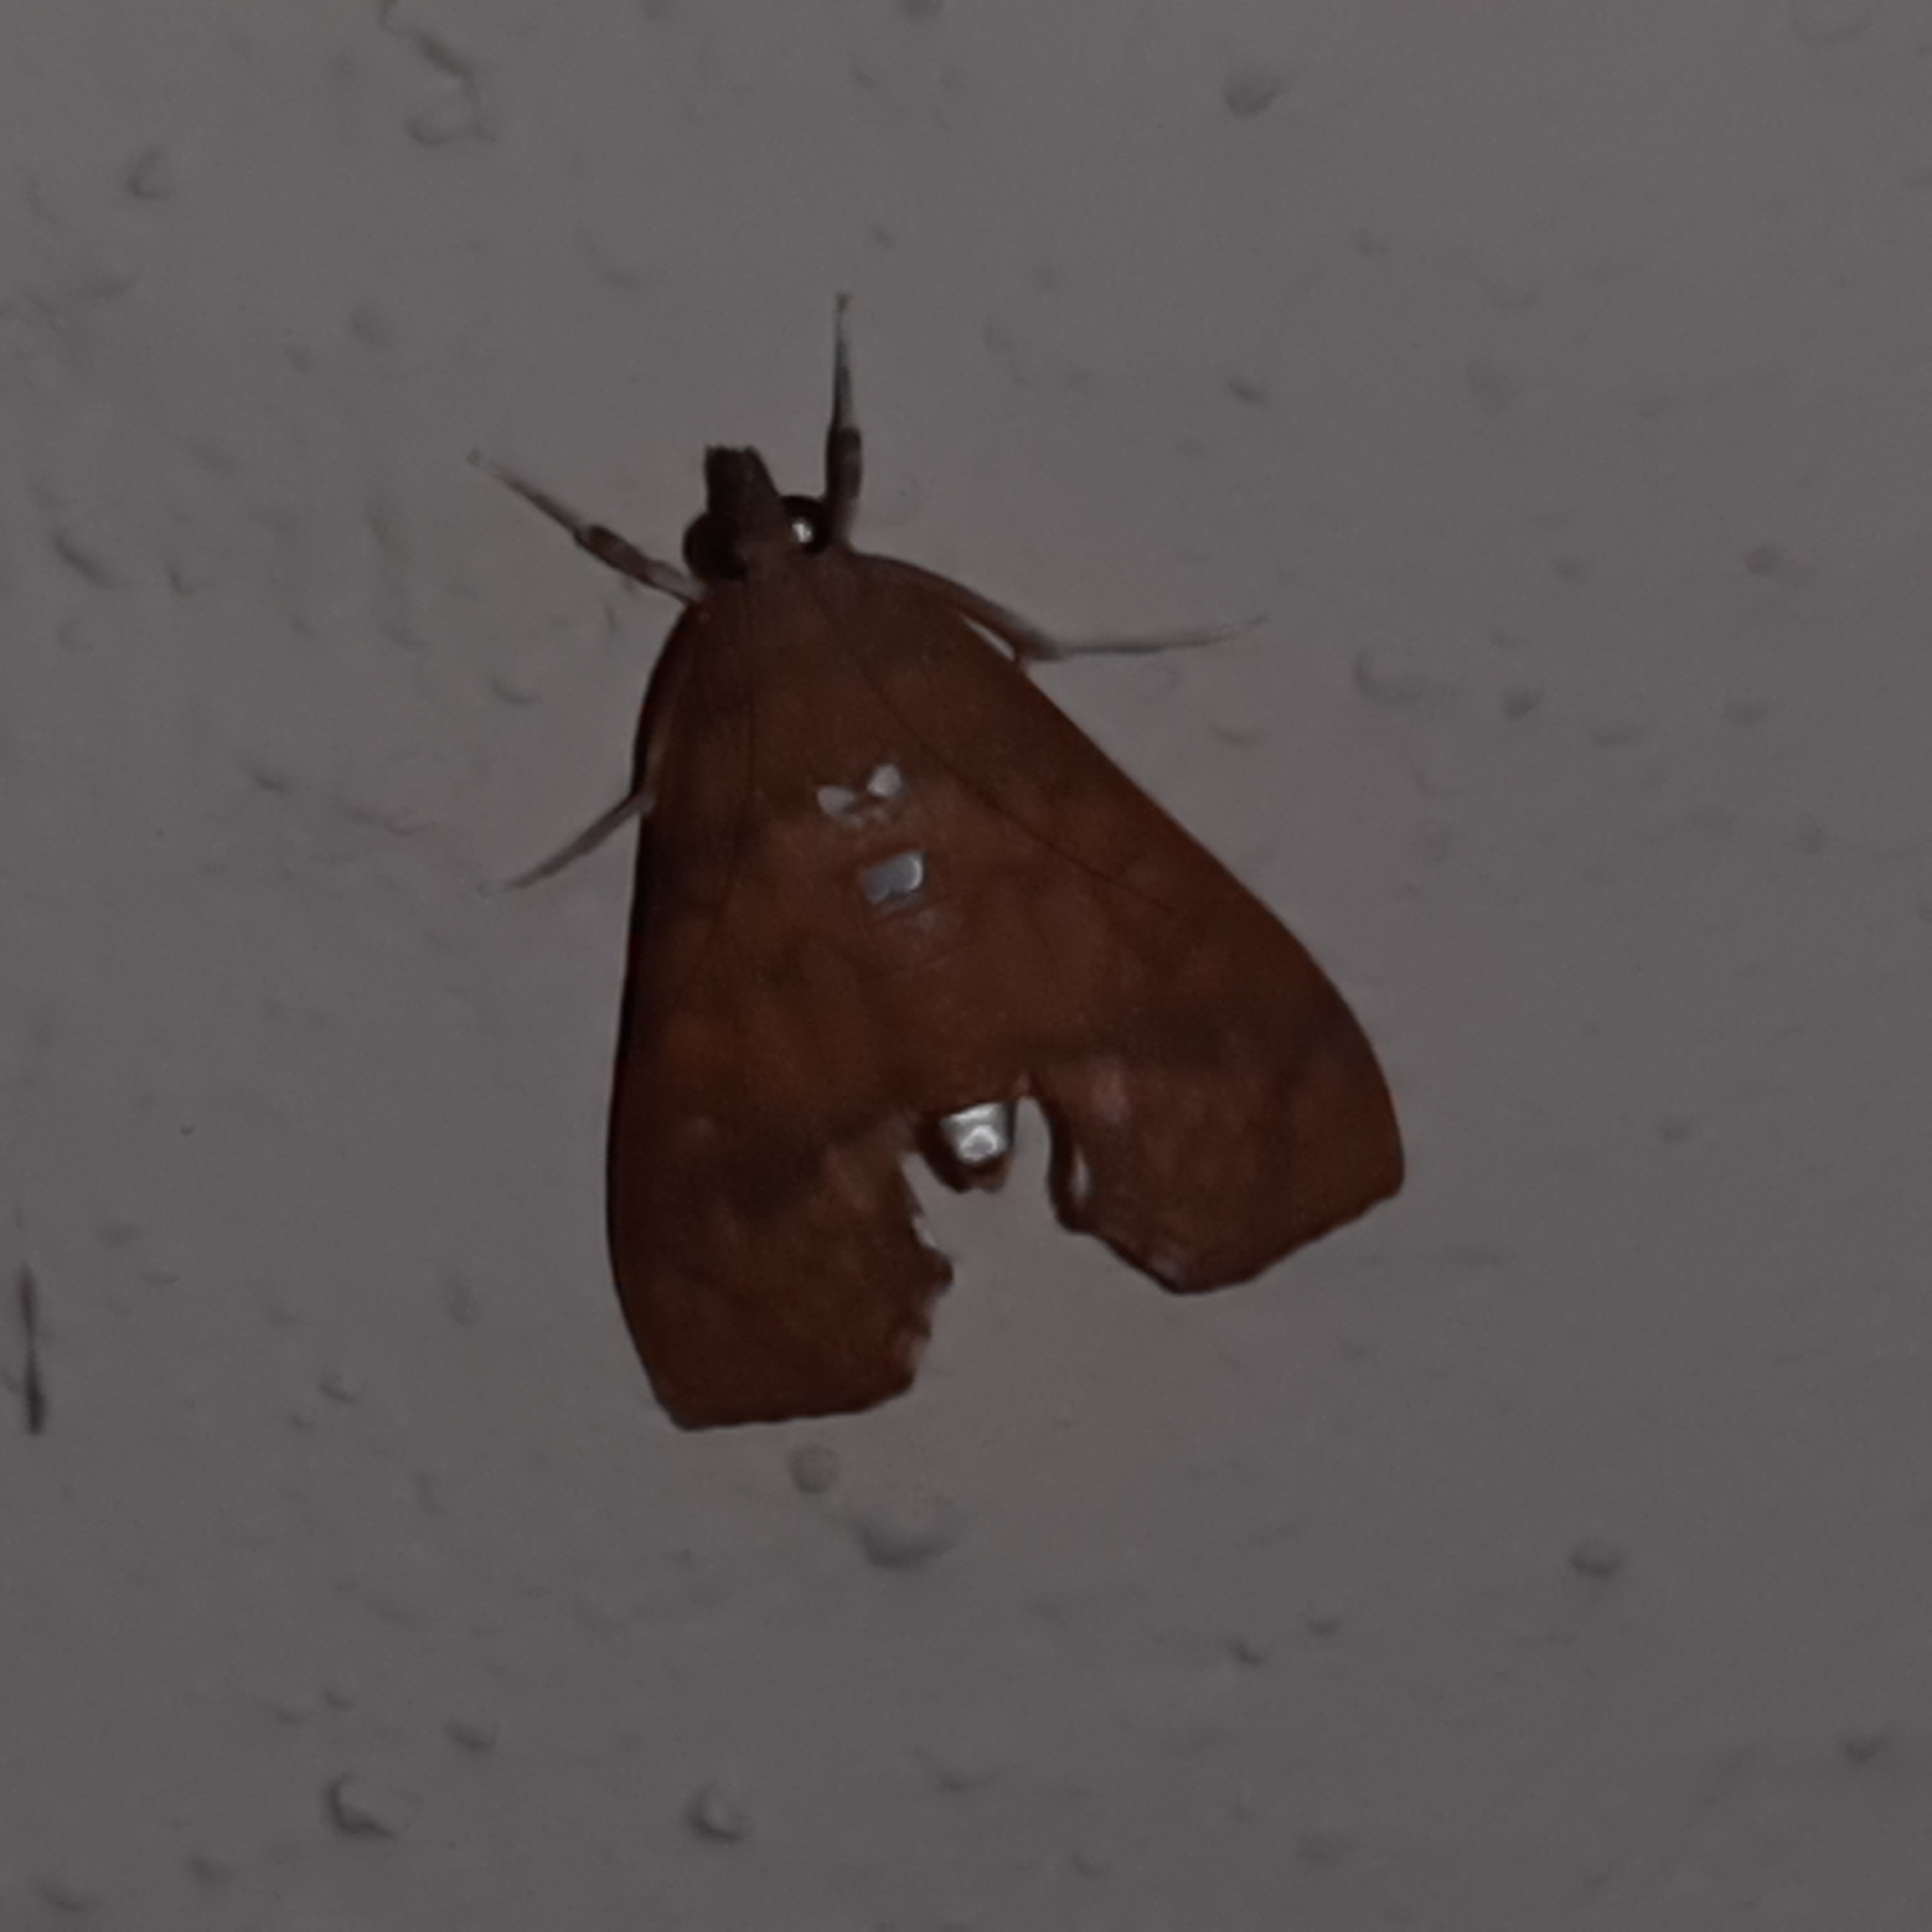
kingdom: Animalia
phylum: Arthropoda
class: Insecta
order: Lepidoptera
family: Crambidae
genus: Liopasia
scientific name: Liopasia ochracealis
